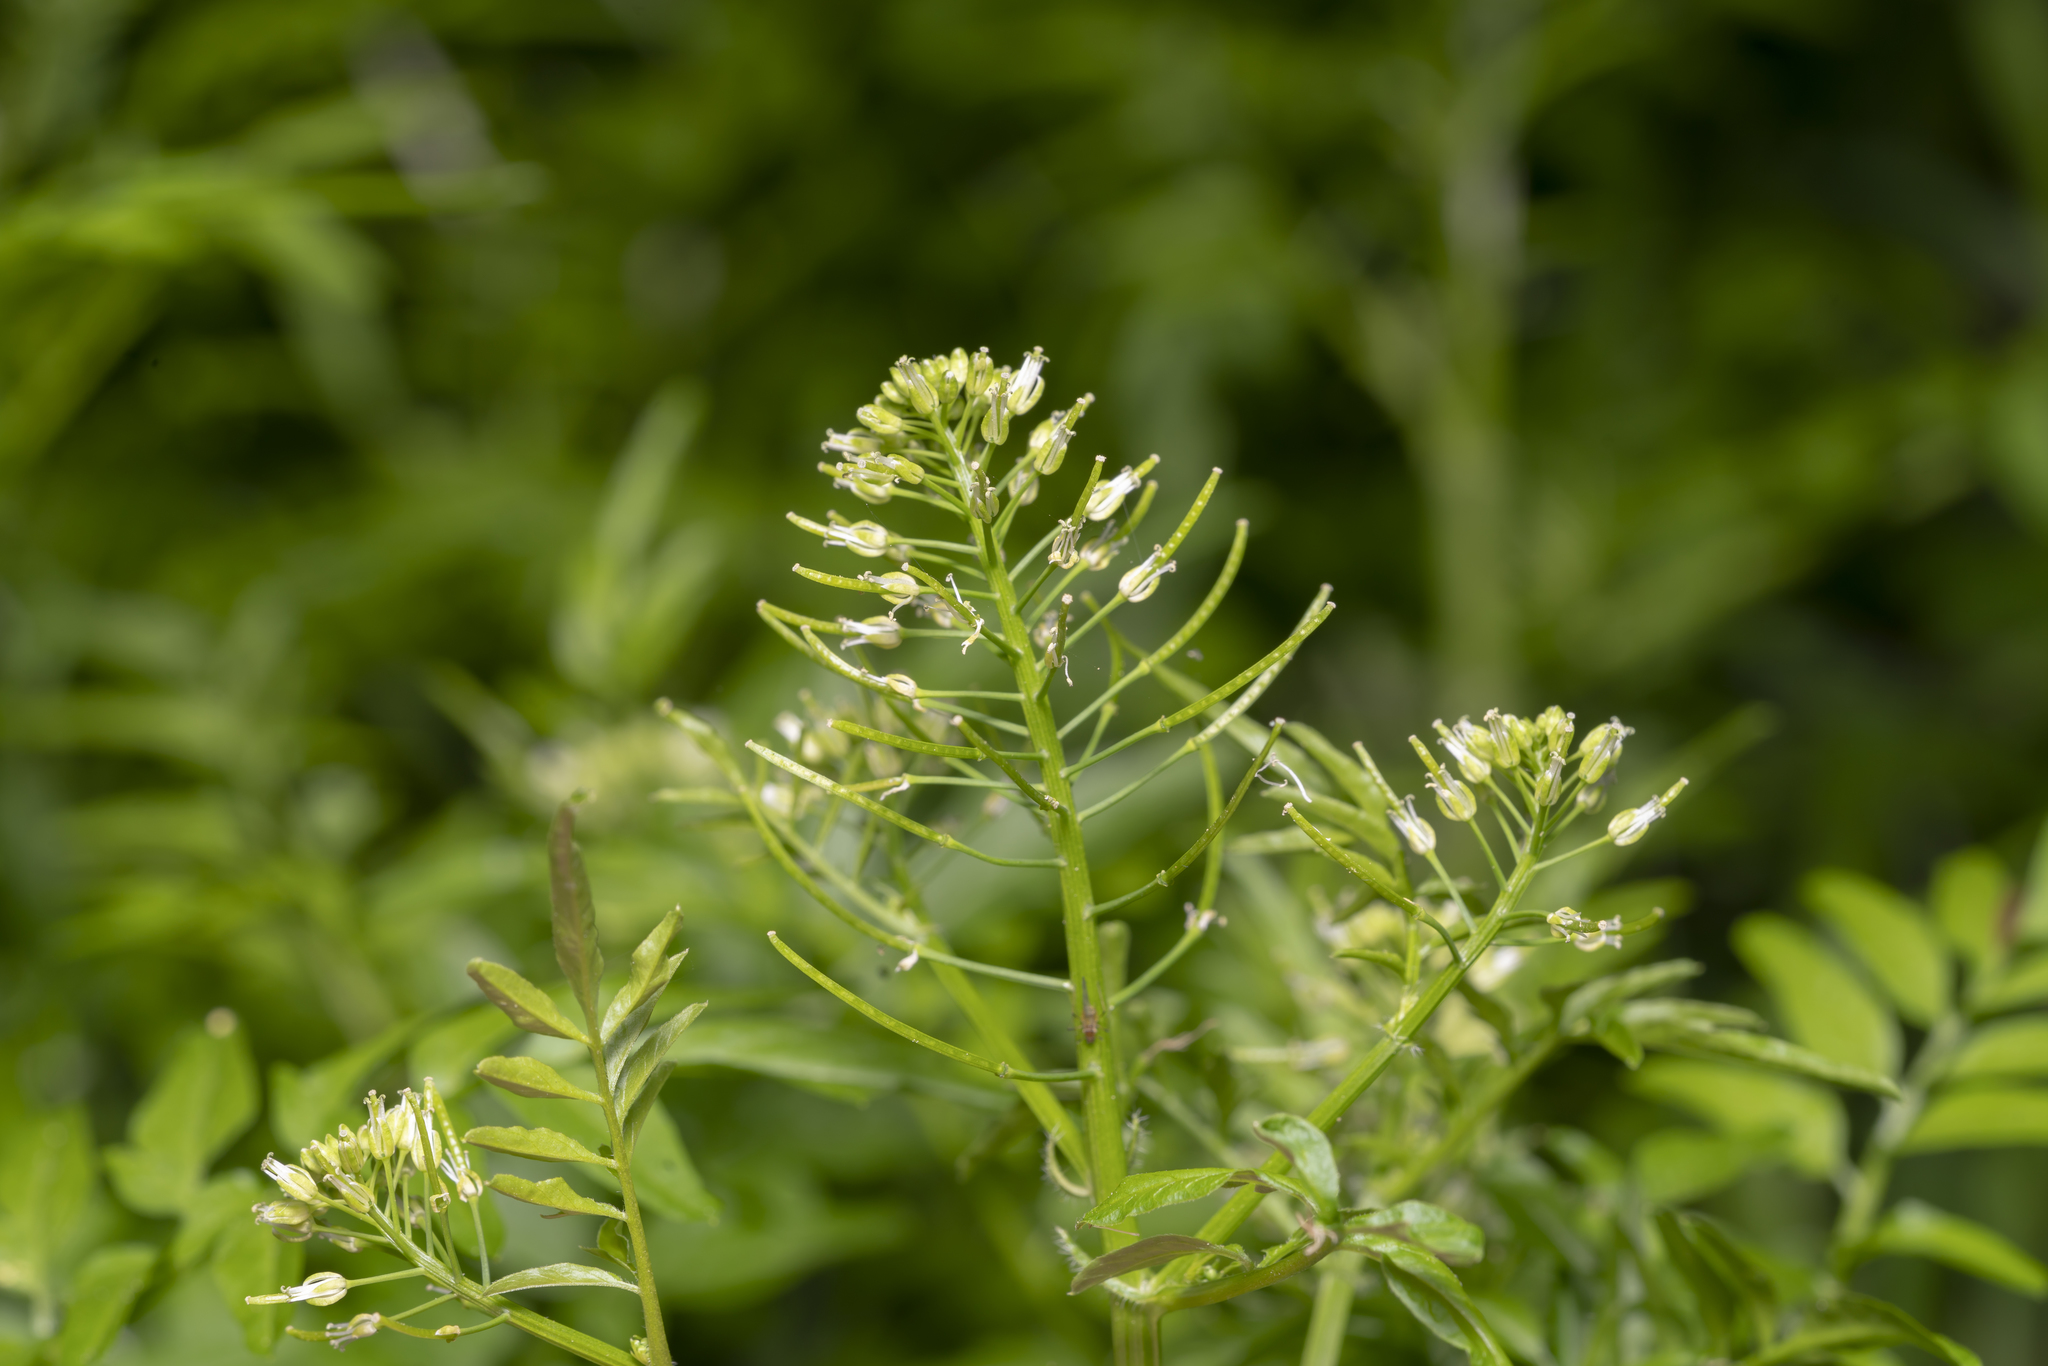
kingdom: Plantae
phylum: Tracheophyta
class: Magnoliopsida
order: Brassicales
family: Brassicaceae
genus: Cardamine
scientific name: Cardamine impatiens
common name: Narrow-leaved bitter-cress
